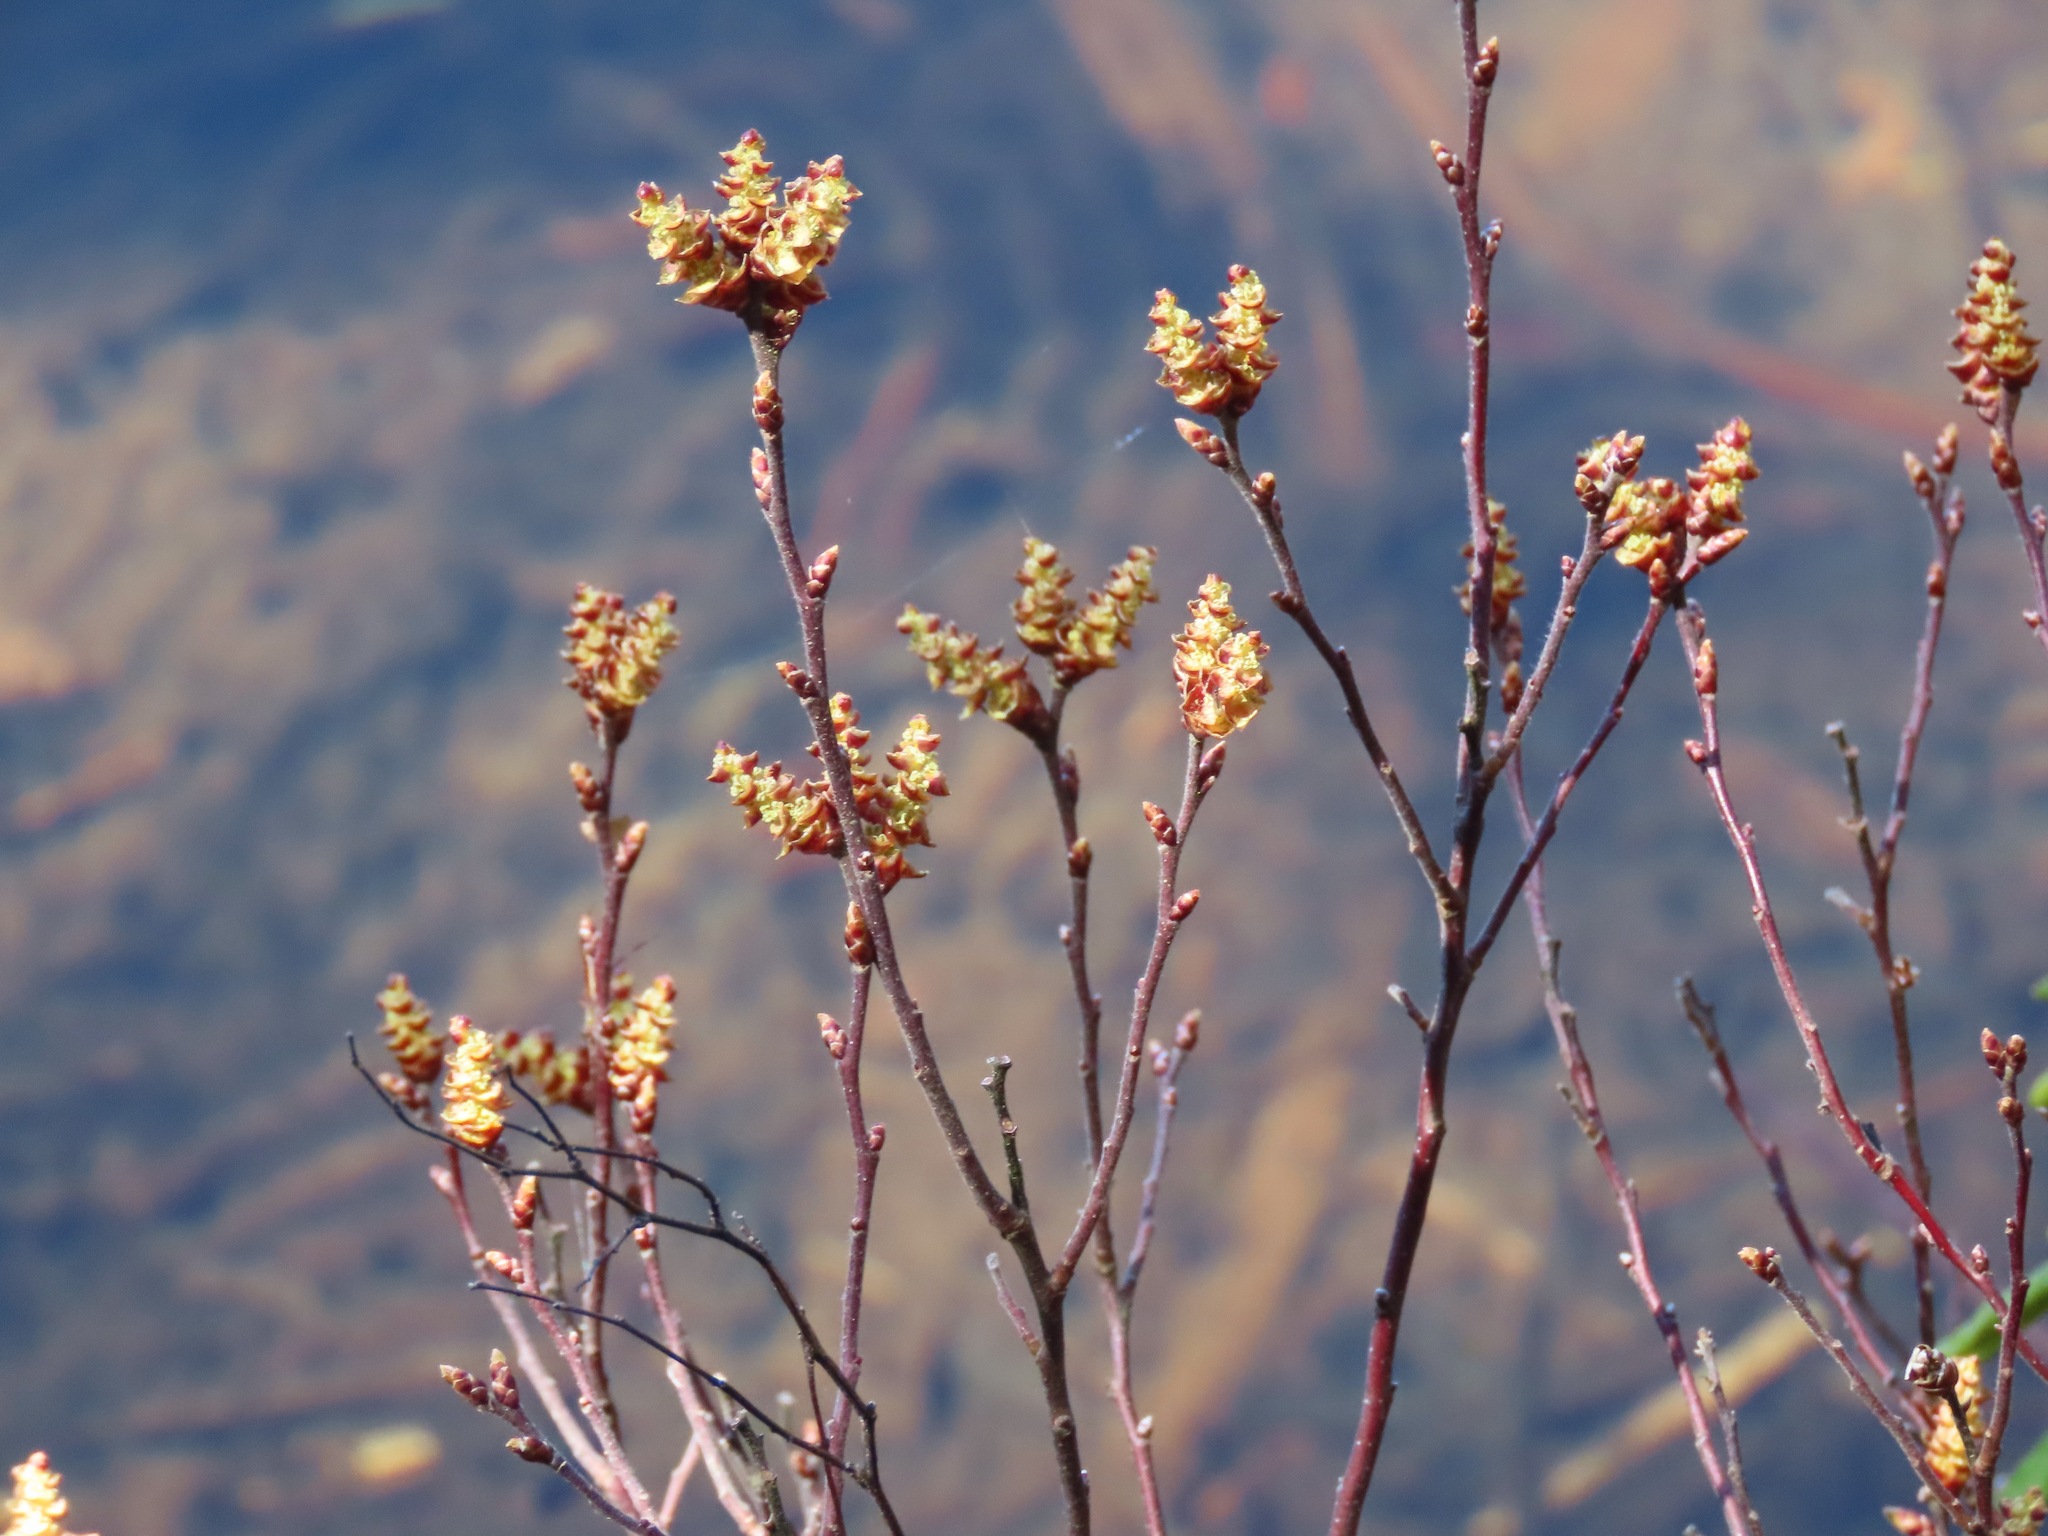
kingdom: Plantae
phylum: Tracheophyta
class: Magnoliopsida
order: Fagales
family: Myricaceae
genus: Myrica
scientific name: Myrica gale
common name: Sweet gale
